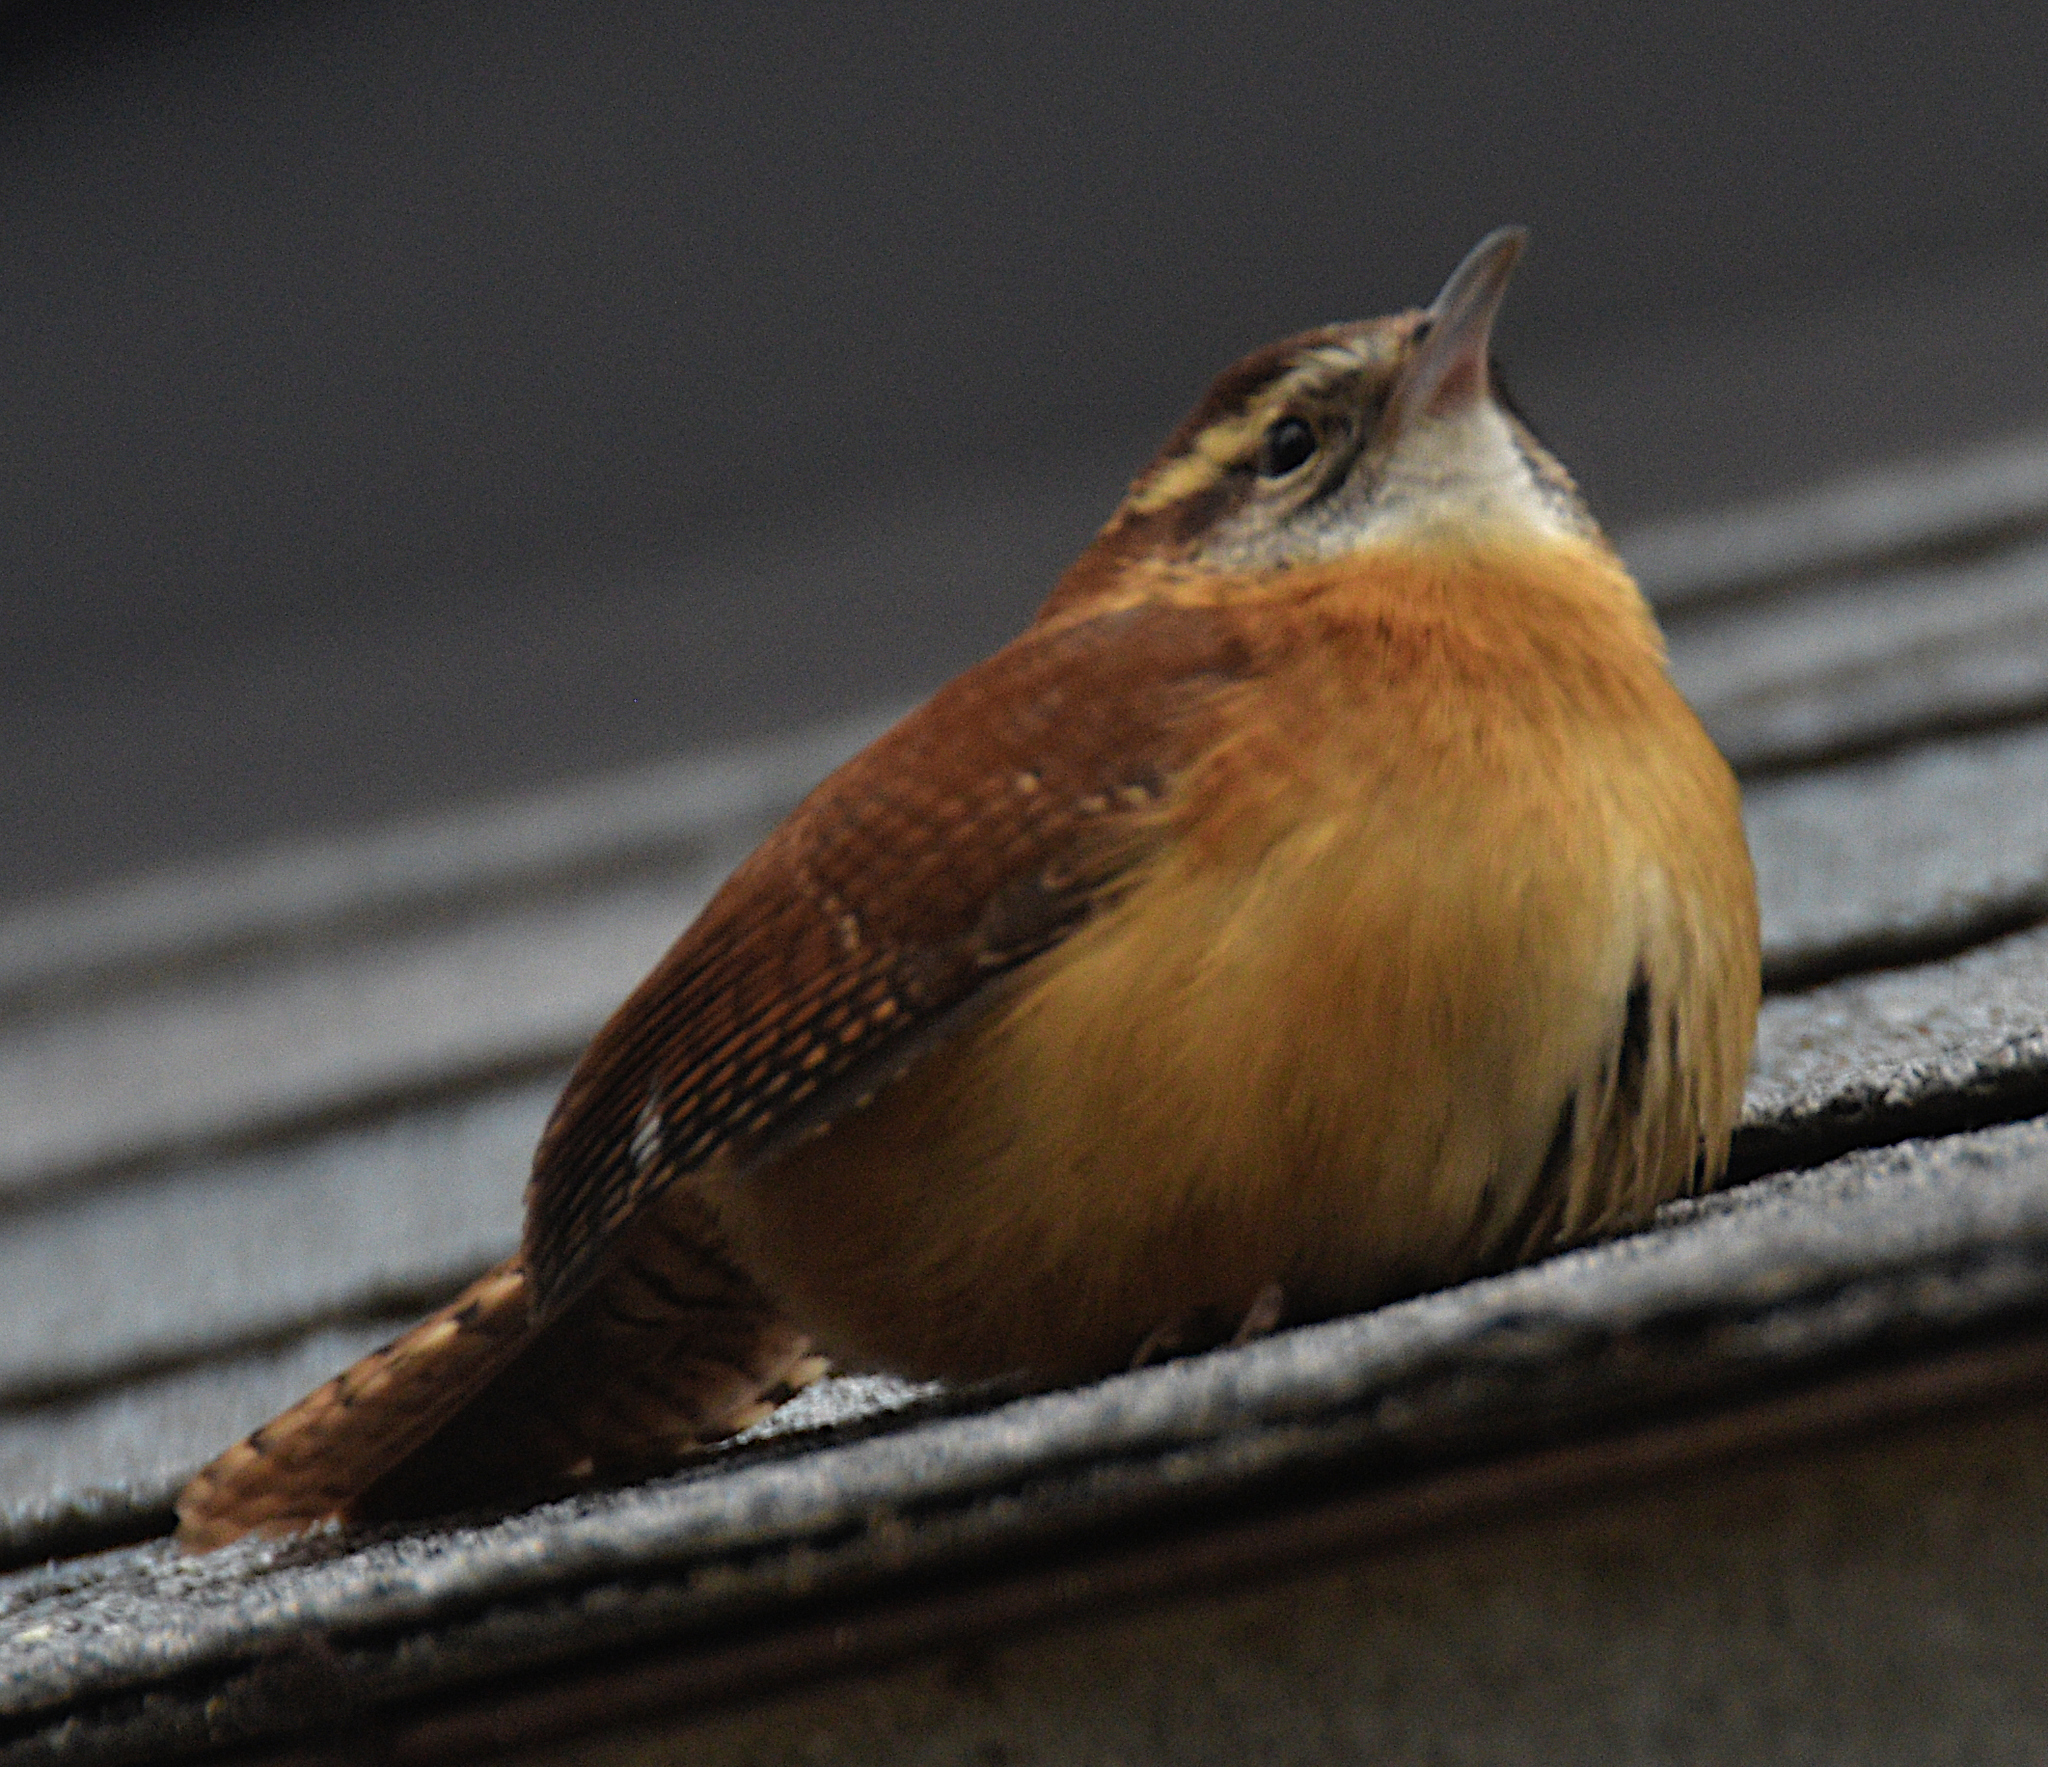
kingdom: Animalia
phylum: Chordata
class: Aves
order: Passeriformes
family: Troglodytidae
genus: Thryothorus
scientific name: Thryothorus ludovicianus
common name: Carolina wren
